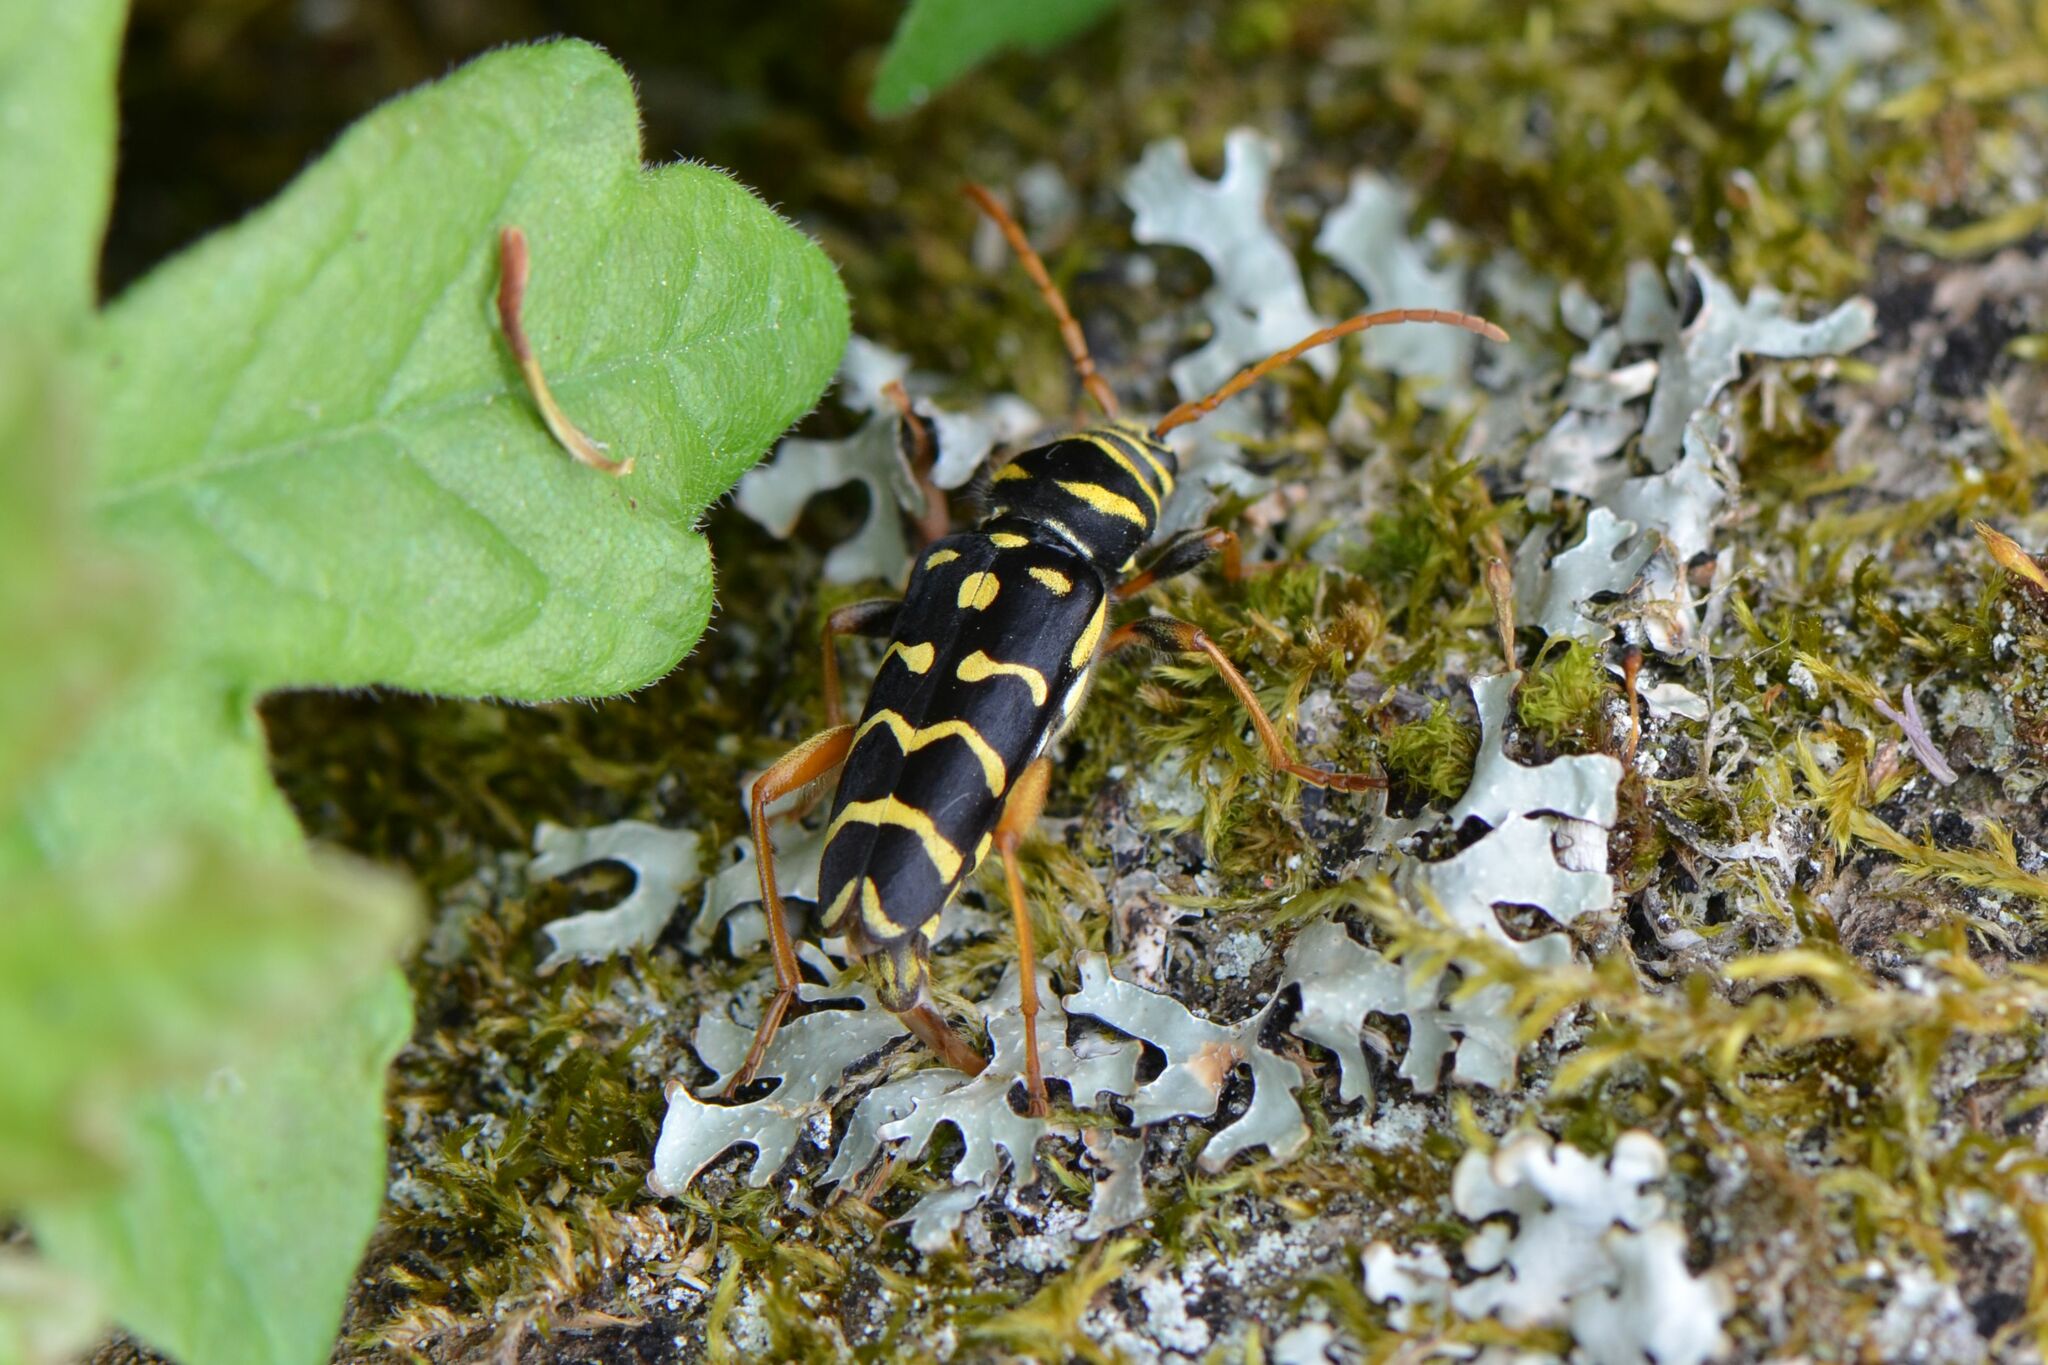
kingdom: Animalia
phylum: Arthropoda
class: Insecta
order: Coleoptera
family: Cerambycidae
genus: Plagionotus
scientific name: Plagionotus arcuatus
